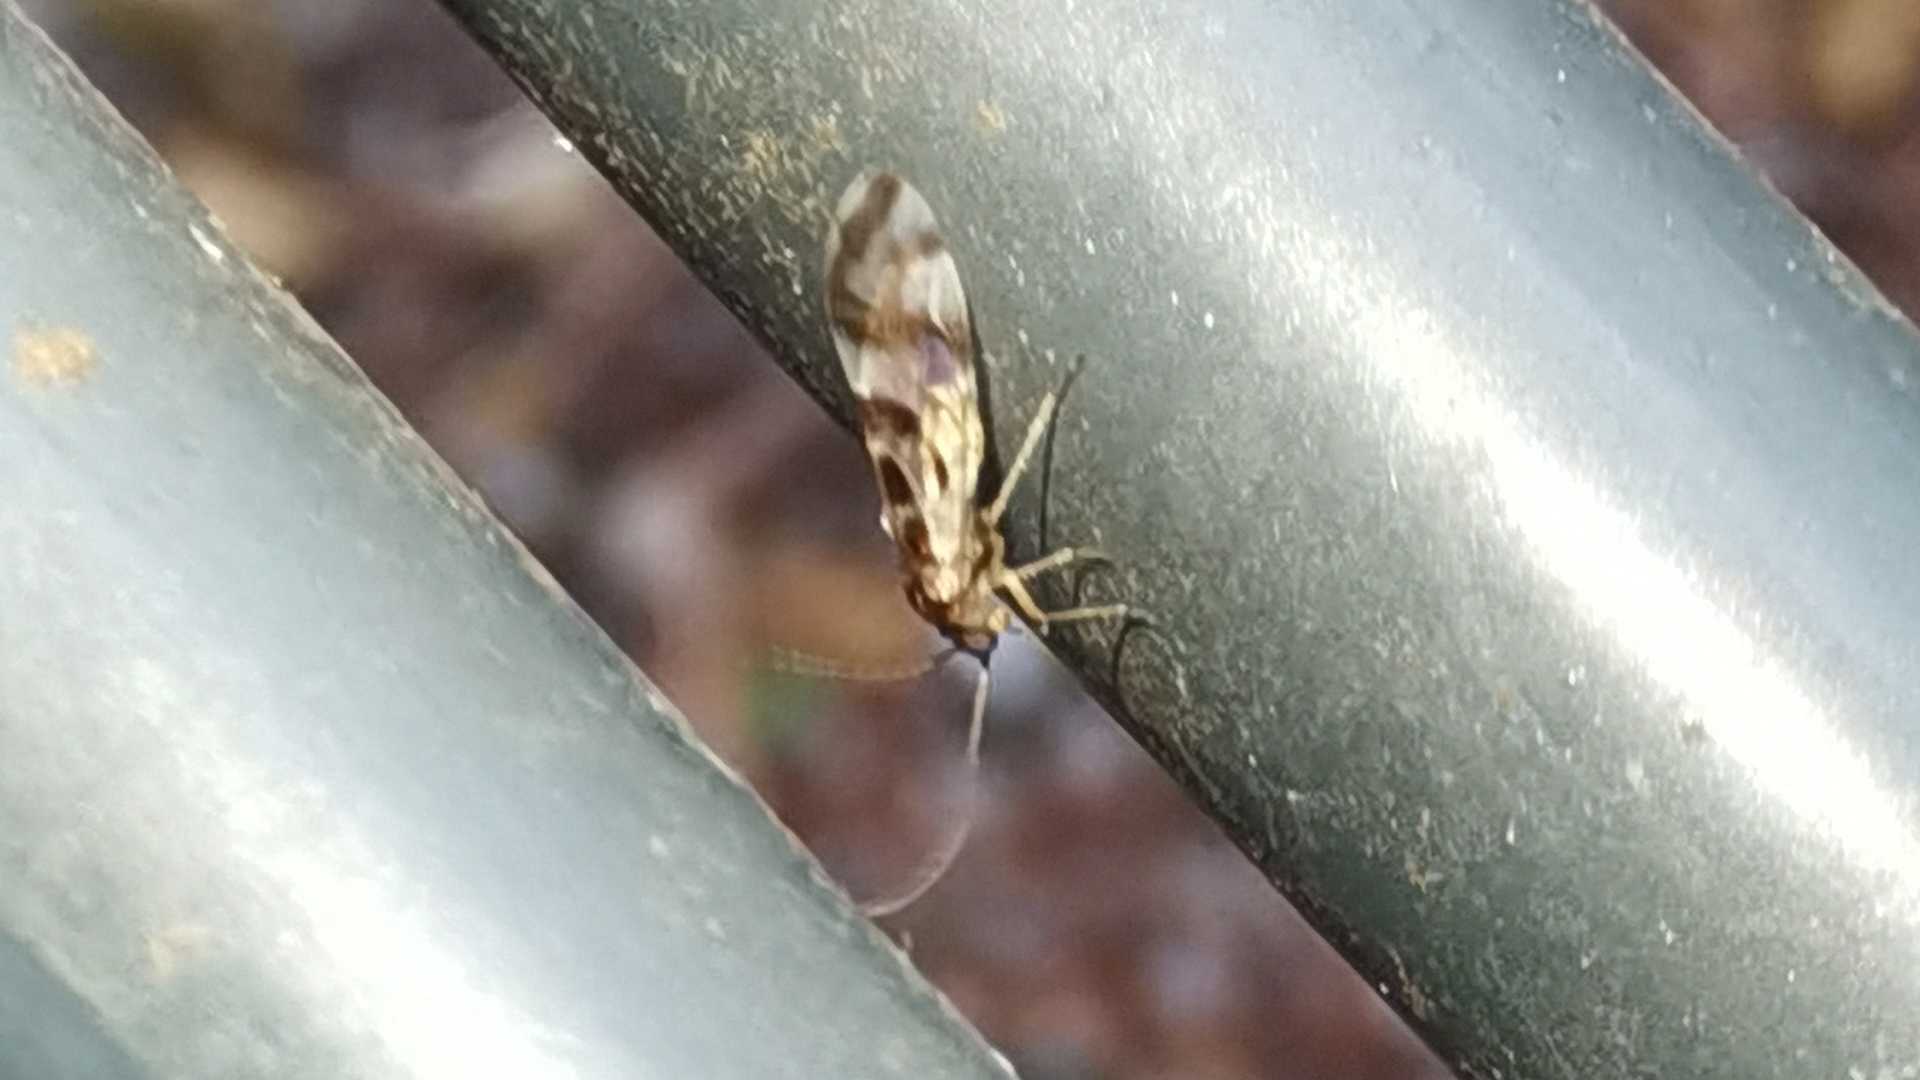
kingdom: Animalia
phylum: Arthropoda
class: Insecta
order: Psocodea
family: Stenopsocidae
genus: Graphopsocus
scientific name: Graphopsocus cruciatus
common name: Lizard bark louse
